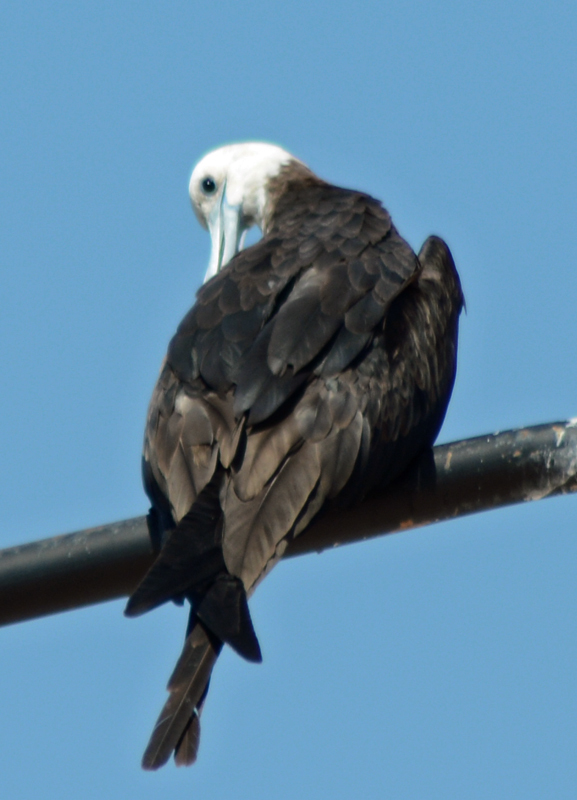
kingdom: Animalia
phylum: Chordata
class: Aves
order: Suliformes
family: Fregatidae
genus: Fregata
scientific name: Fregata magnificens
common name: Magnificent frigatebird
